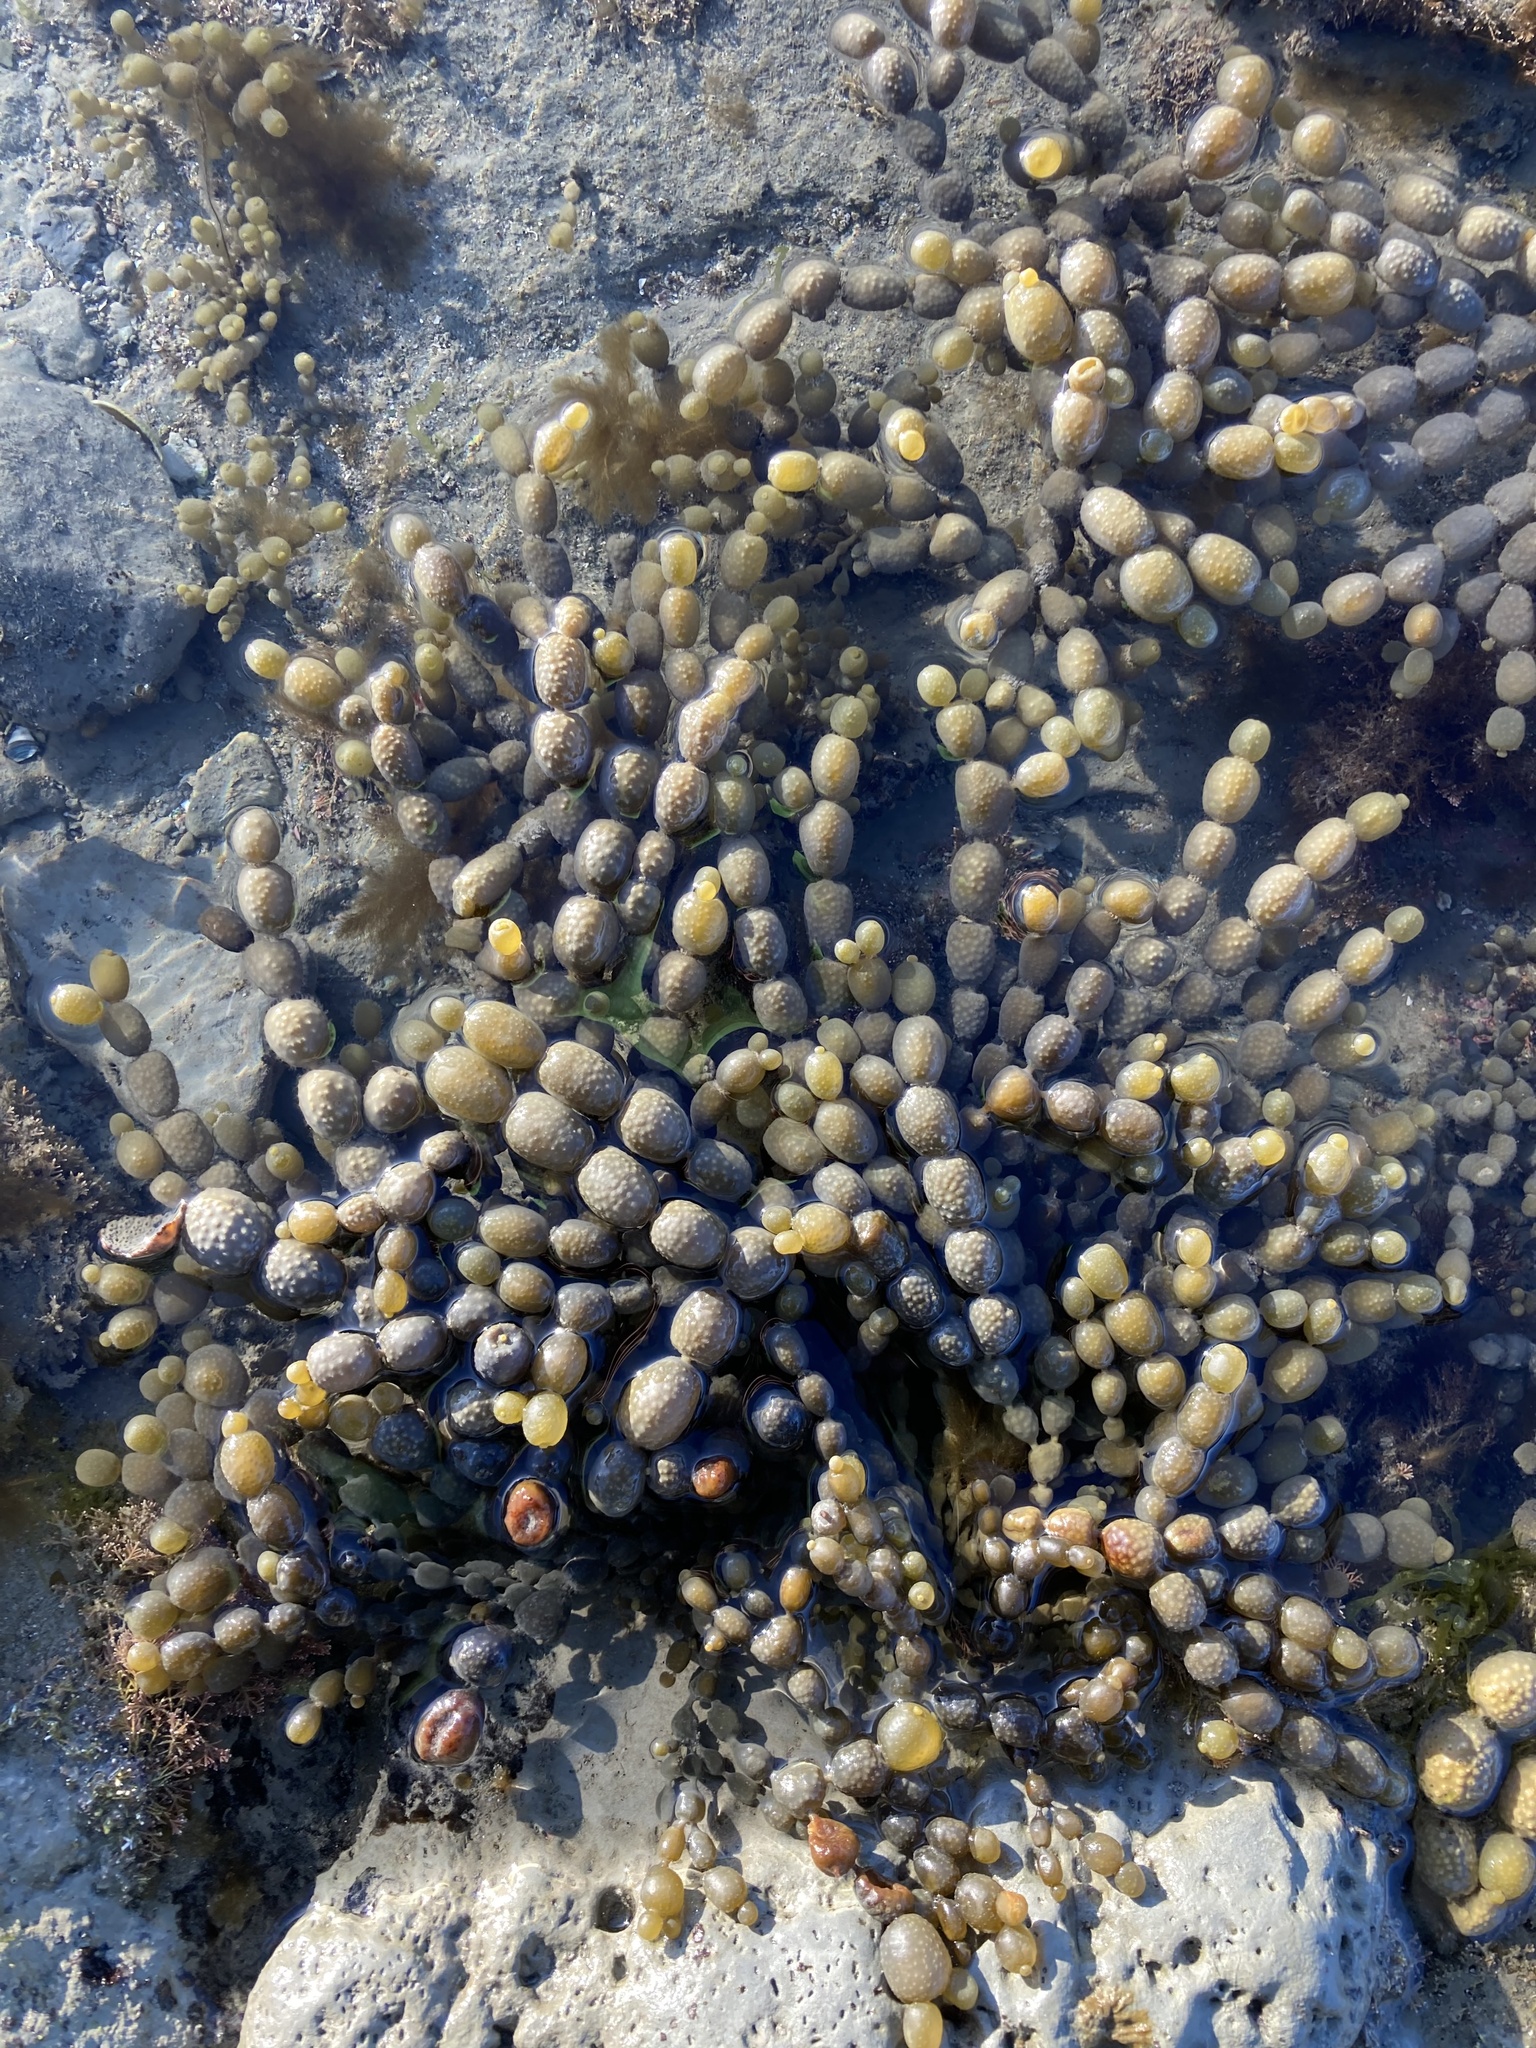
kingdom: Chromista
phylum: Ochrophyta
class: Phaeophyceae
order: Fucales
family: Hormosiraceae
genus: Hormosira
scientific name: Hormosira banksii
